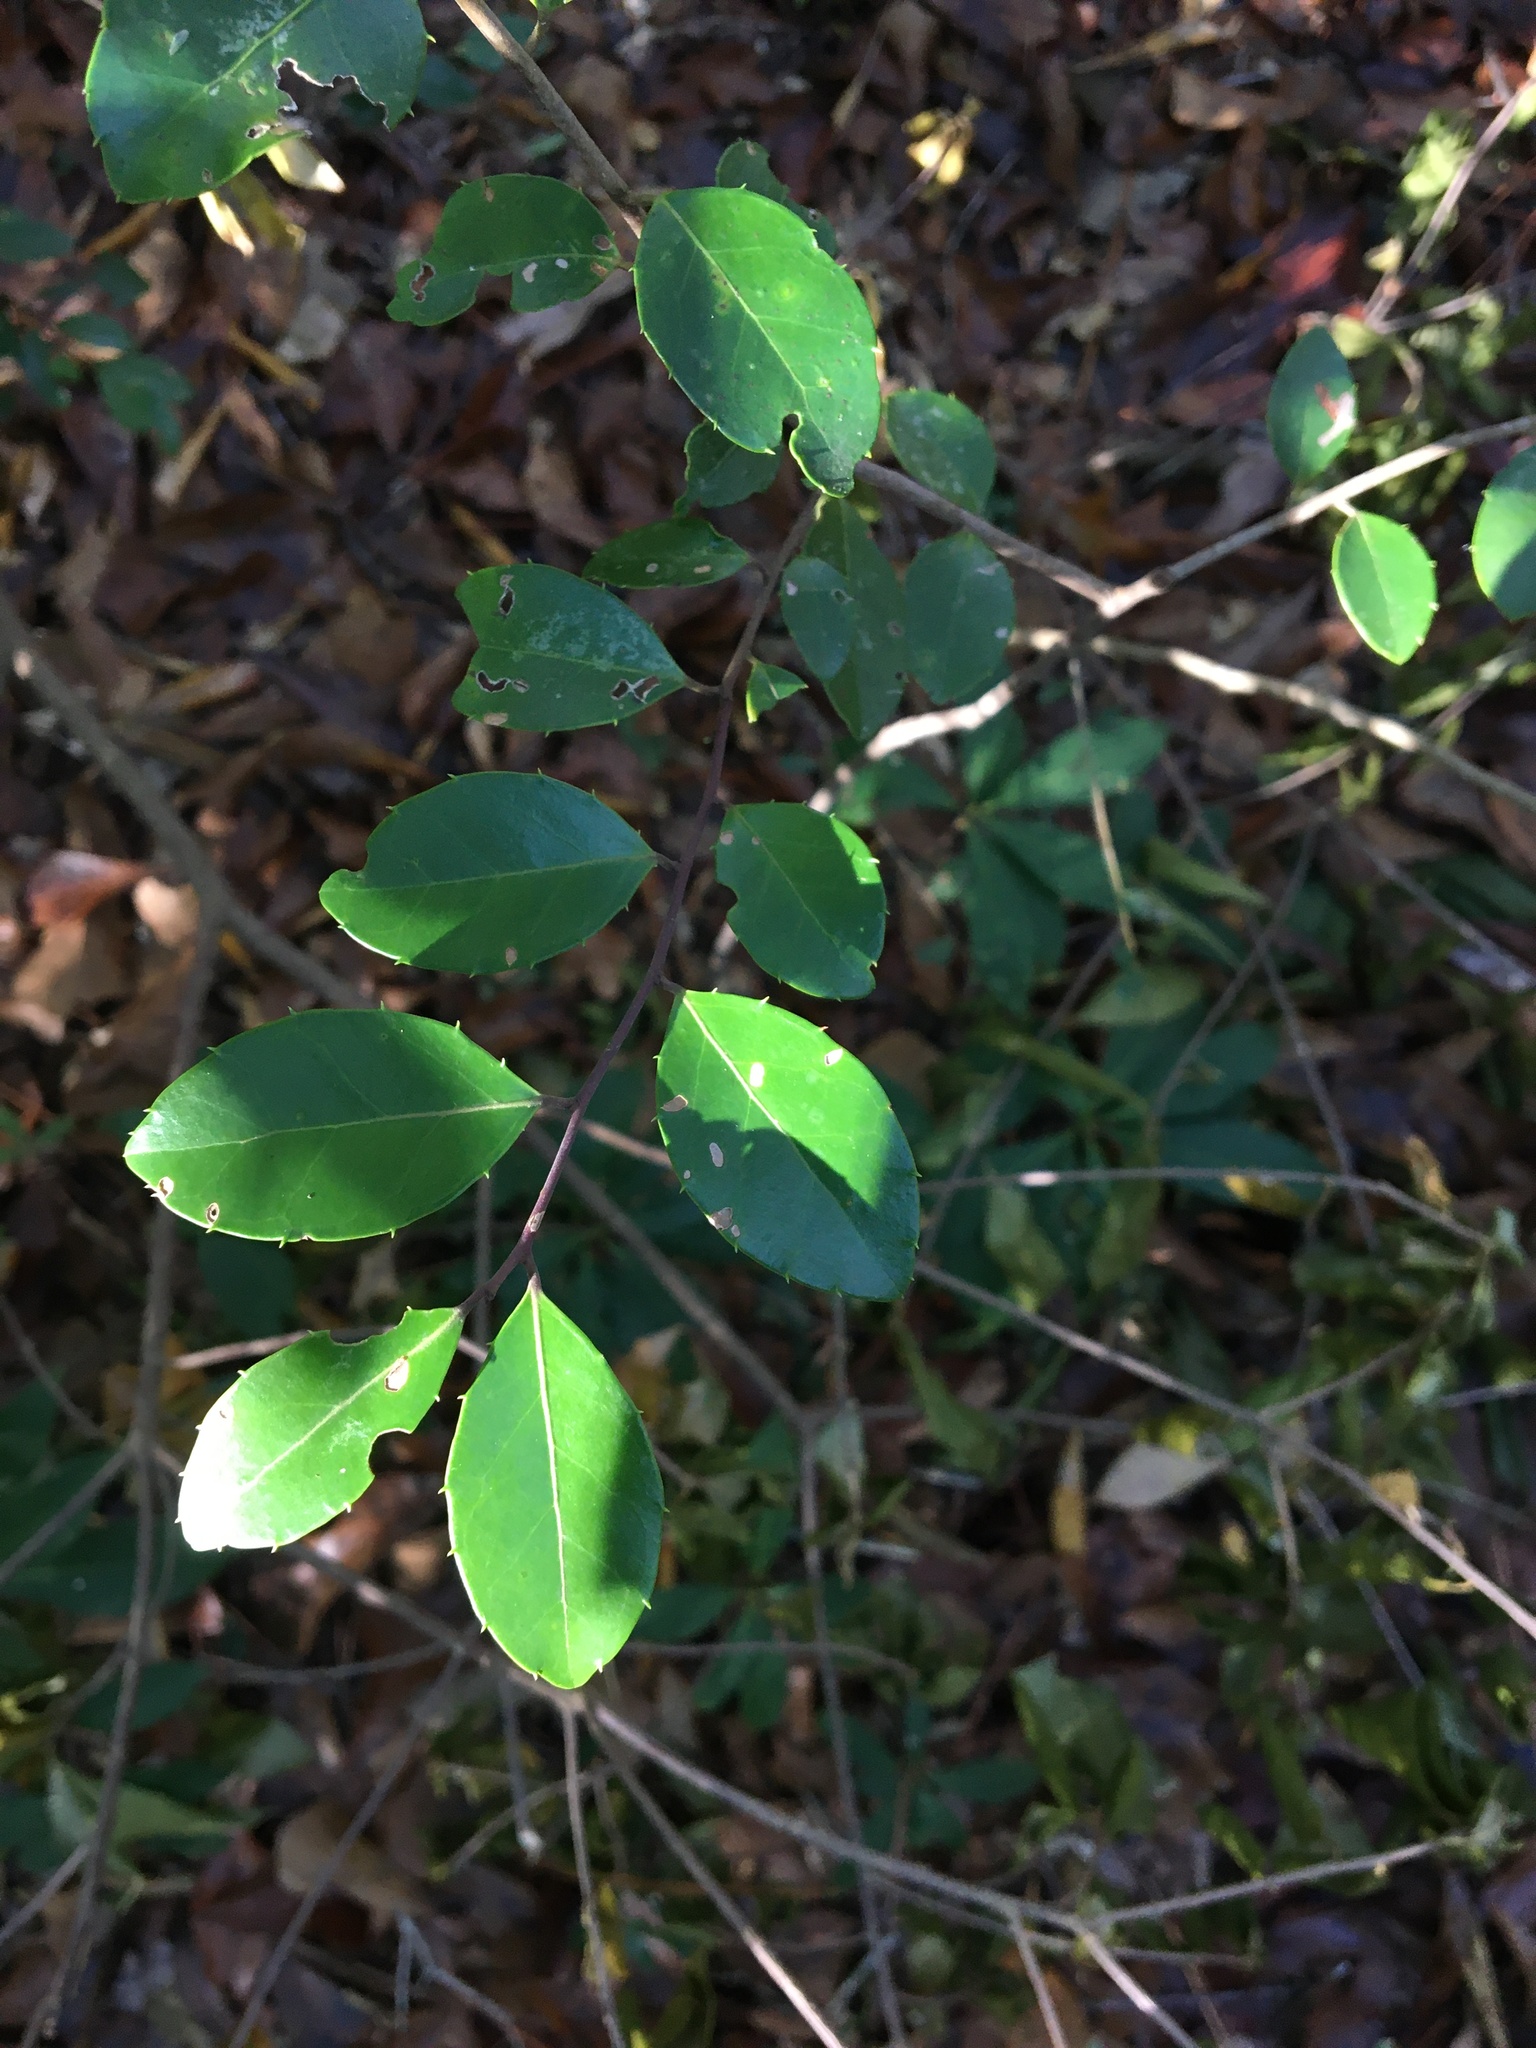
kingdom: Plantae
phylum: Tracheophyta
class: Magnoliopsida
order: Aquifoliales
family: Aquifoliaceae
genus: Ilex
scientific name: Ilex coriacea
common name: Sweet gallberry
